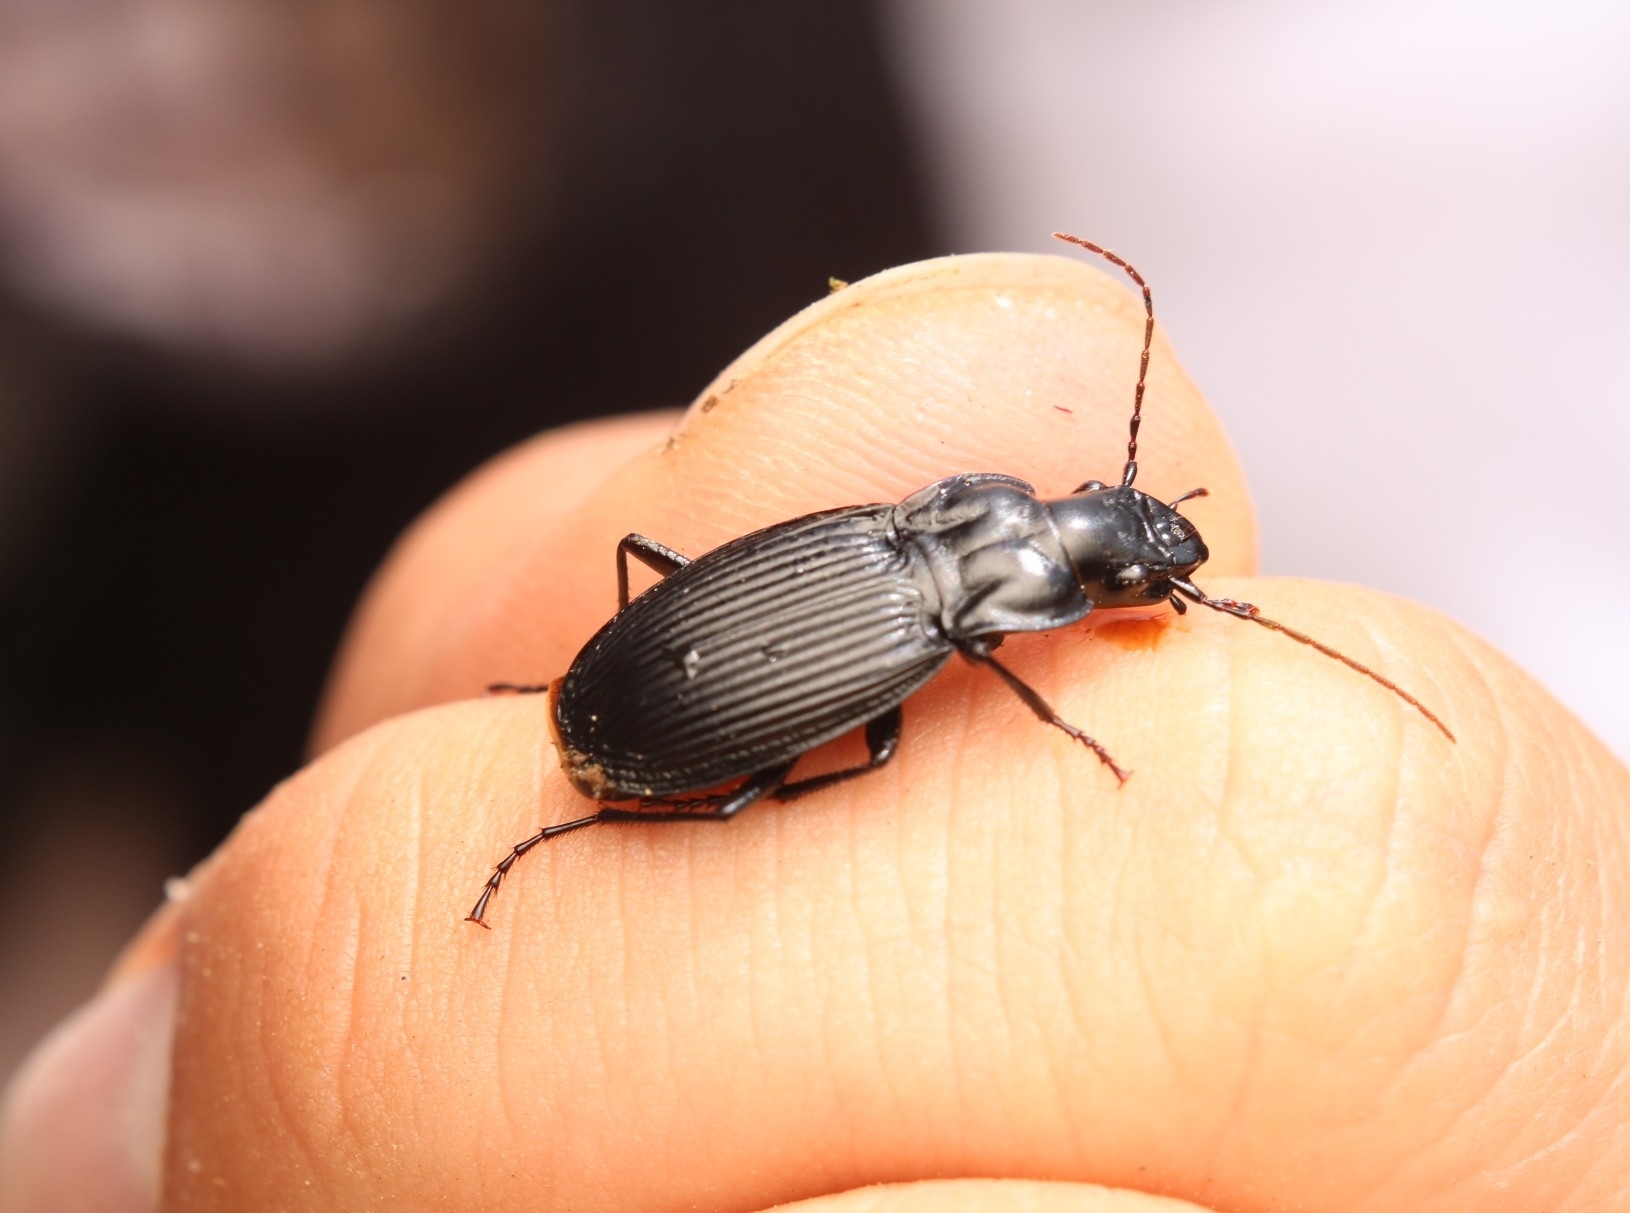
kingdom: Animalia
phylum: Arthropoda
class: Insecta
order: Coleoptera
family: Carabidae
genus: Dicaelus
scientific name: Dicaelus teter
